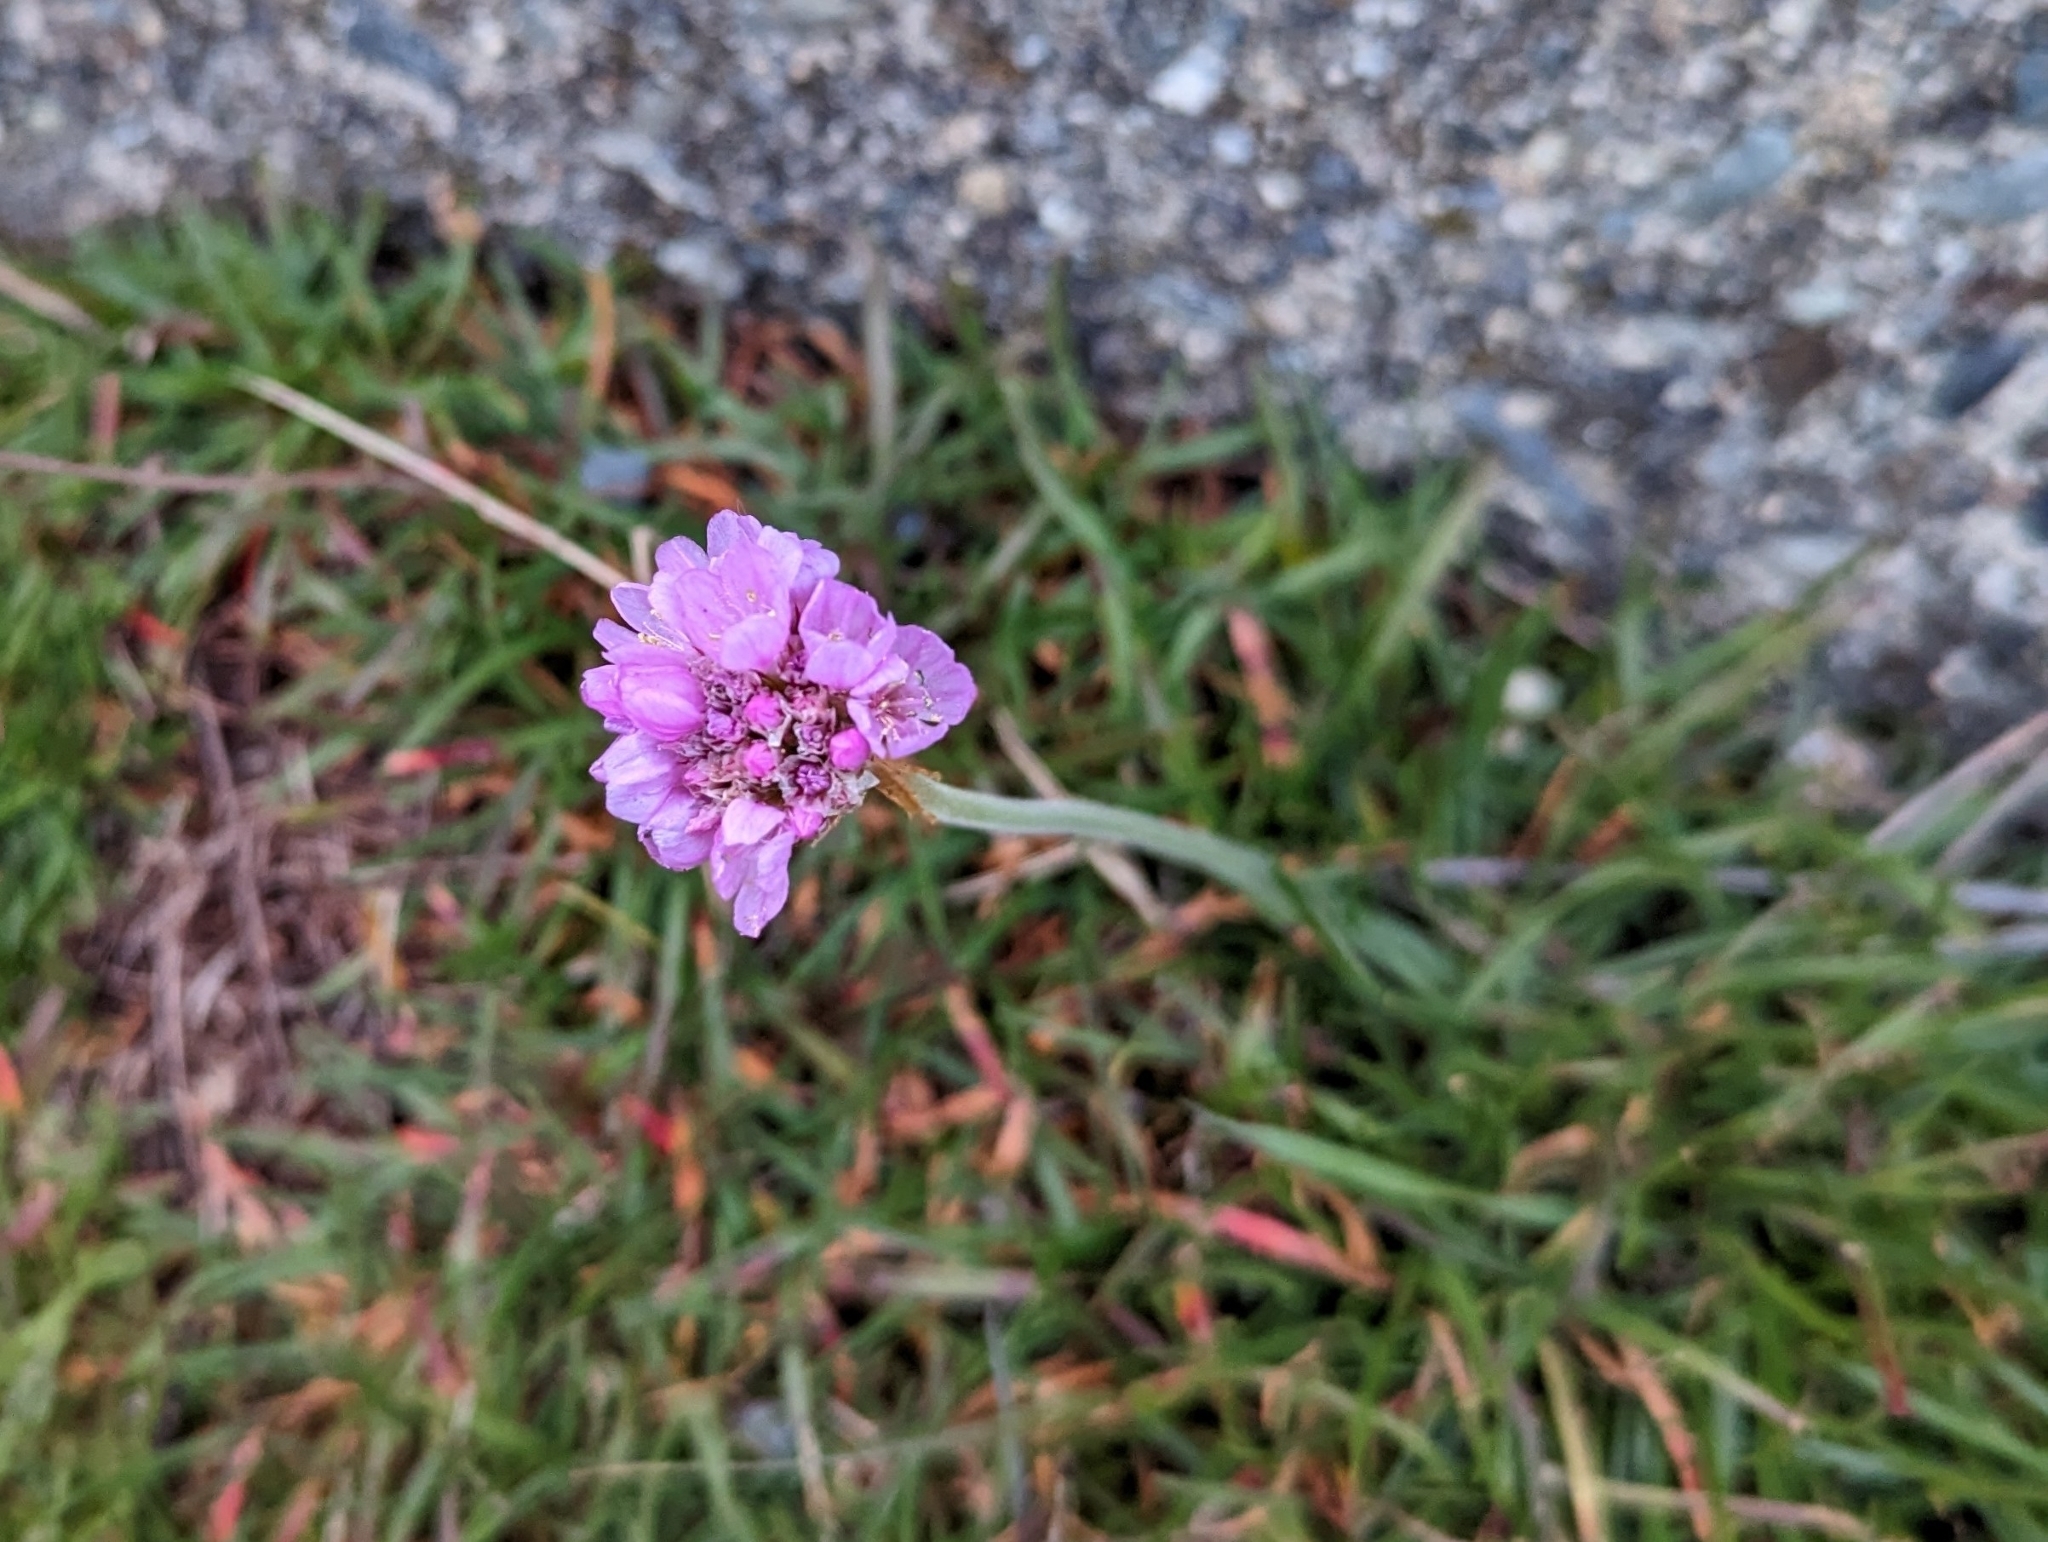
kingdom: Plantae
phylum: Tracheophyta
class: Magnoliopsida
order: Caryophyllales
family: Plumbaginaceae
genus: Armeria
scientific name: Armeria maritima
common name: Thrift
